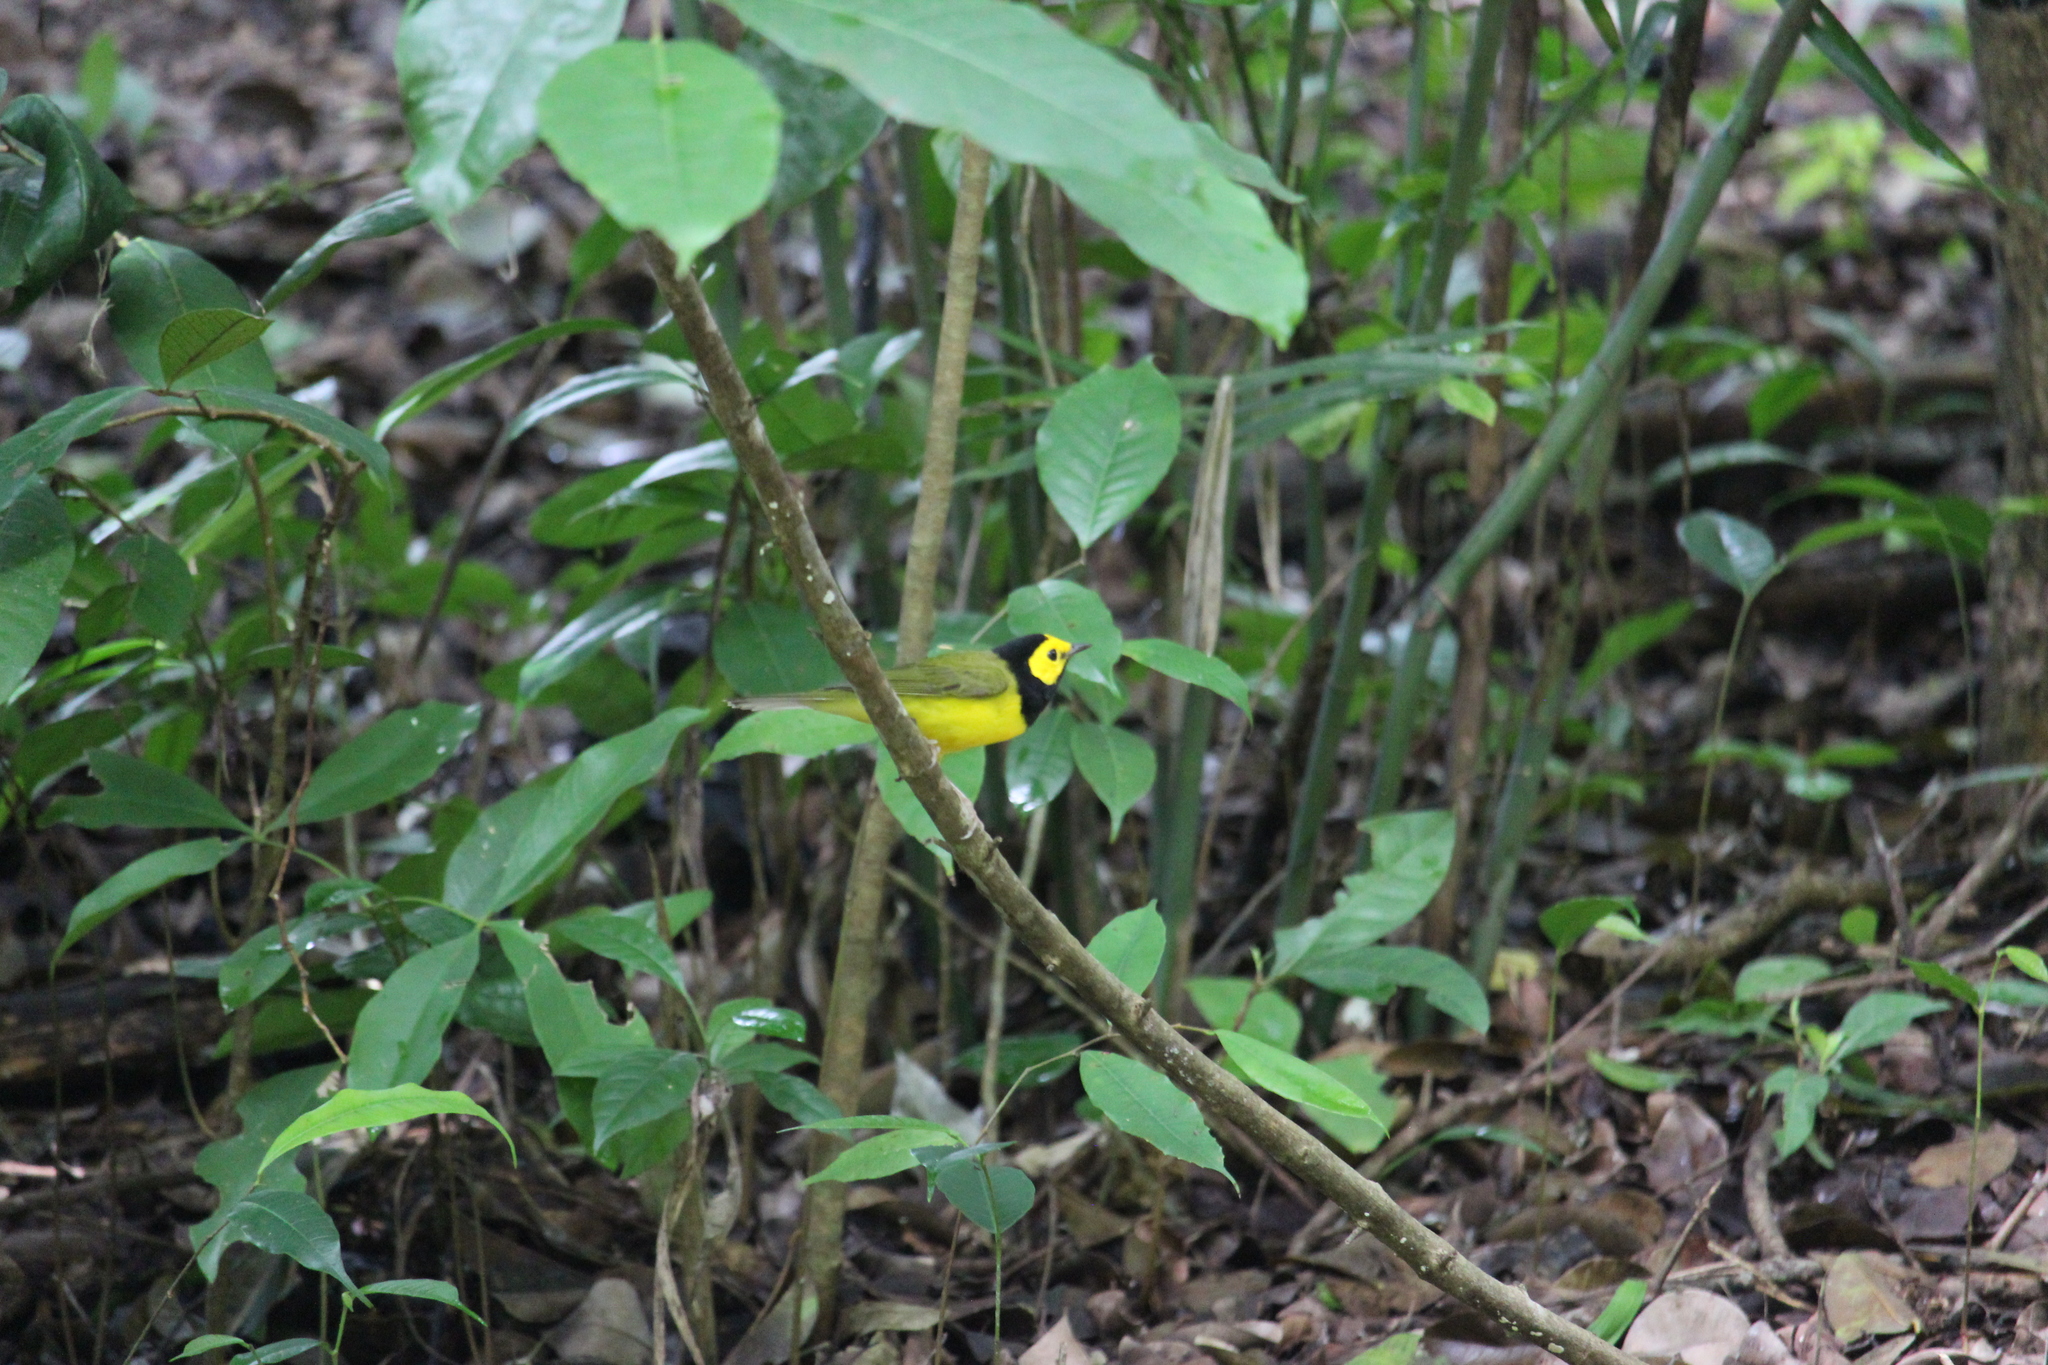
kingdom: Animalia
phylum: Chordata
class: Aves
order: Passeriformes
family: Parulidae
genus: Setophaga
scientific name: Setophaga citrina
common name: Hooded warbler
